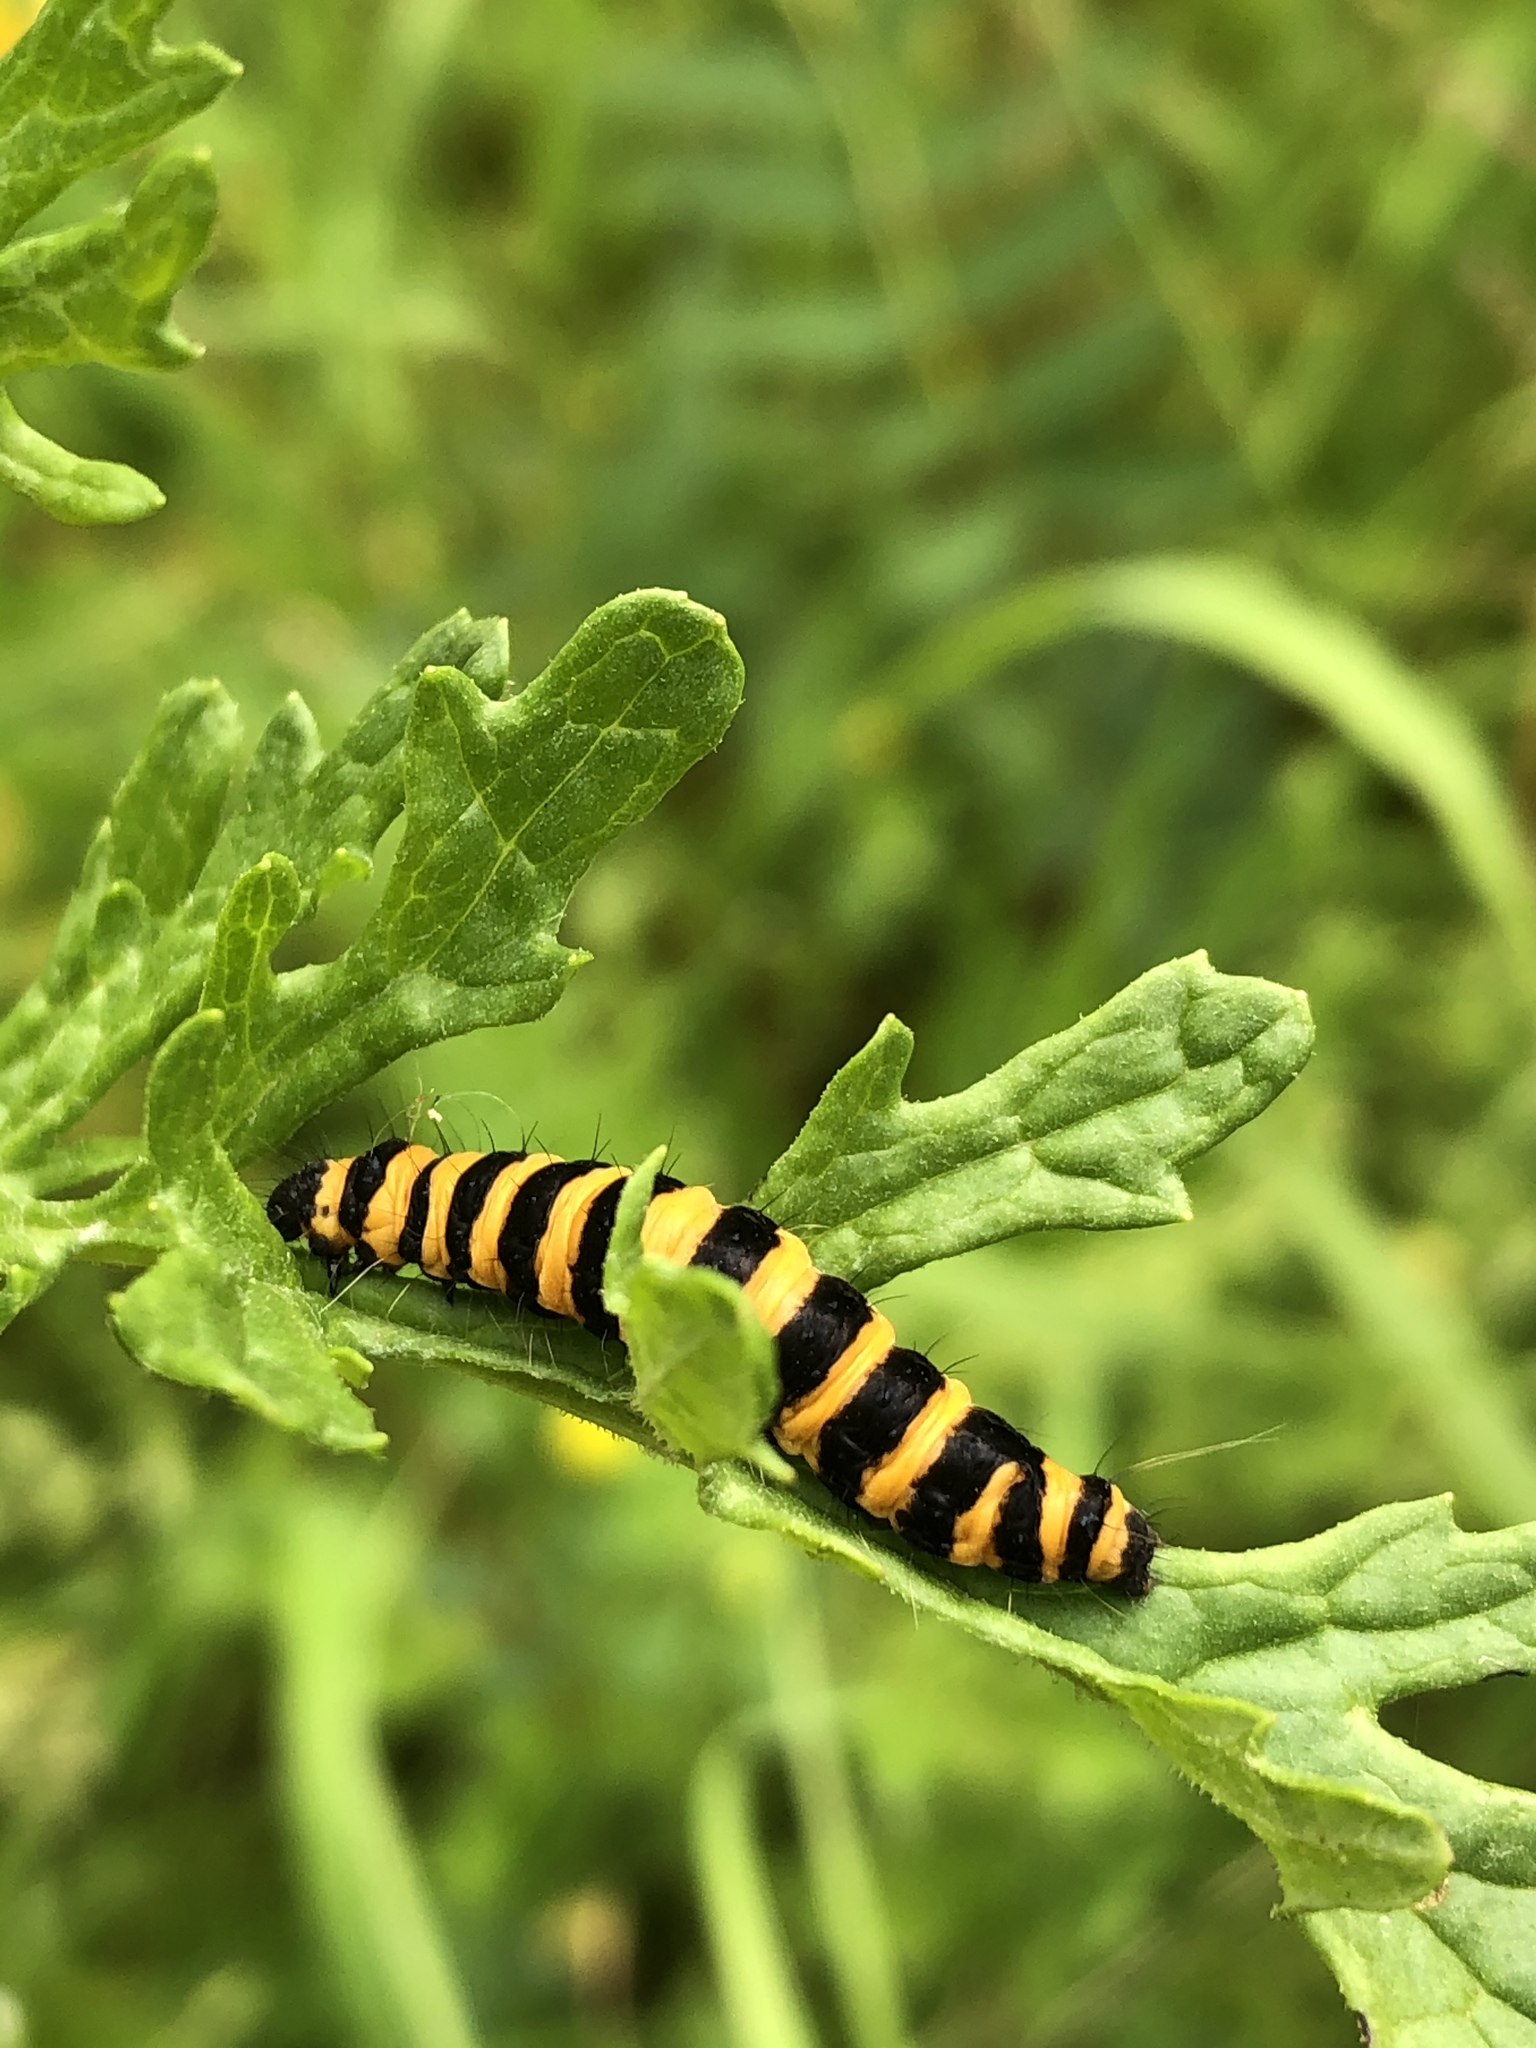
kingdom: Animalia
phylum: Arthropoda
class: Insecta
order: Lepidoptera
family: Erebidae
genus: Tyria
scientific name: Tyria jacobaeae
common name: Cinnabar
